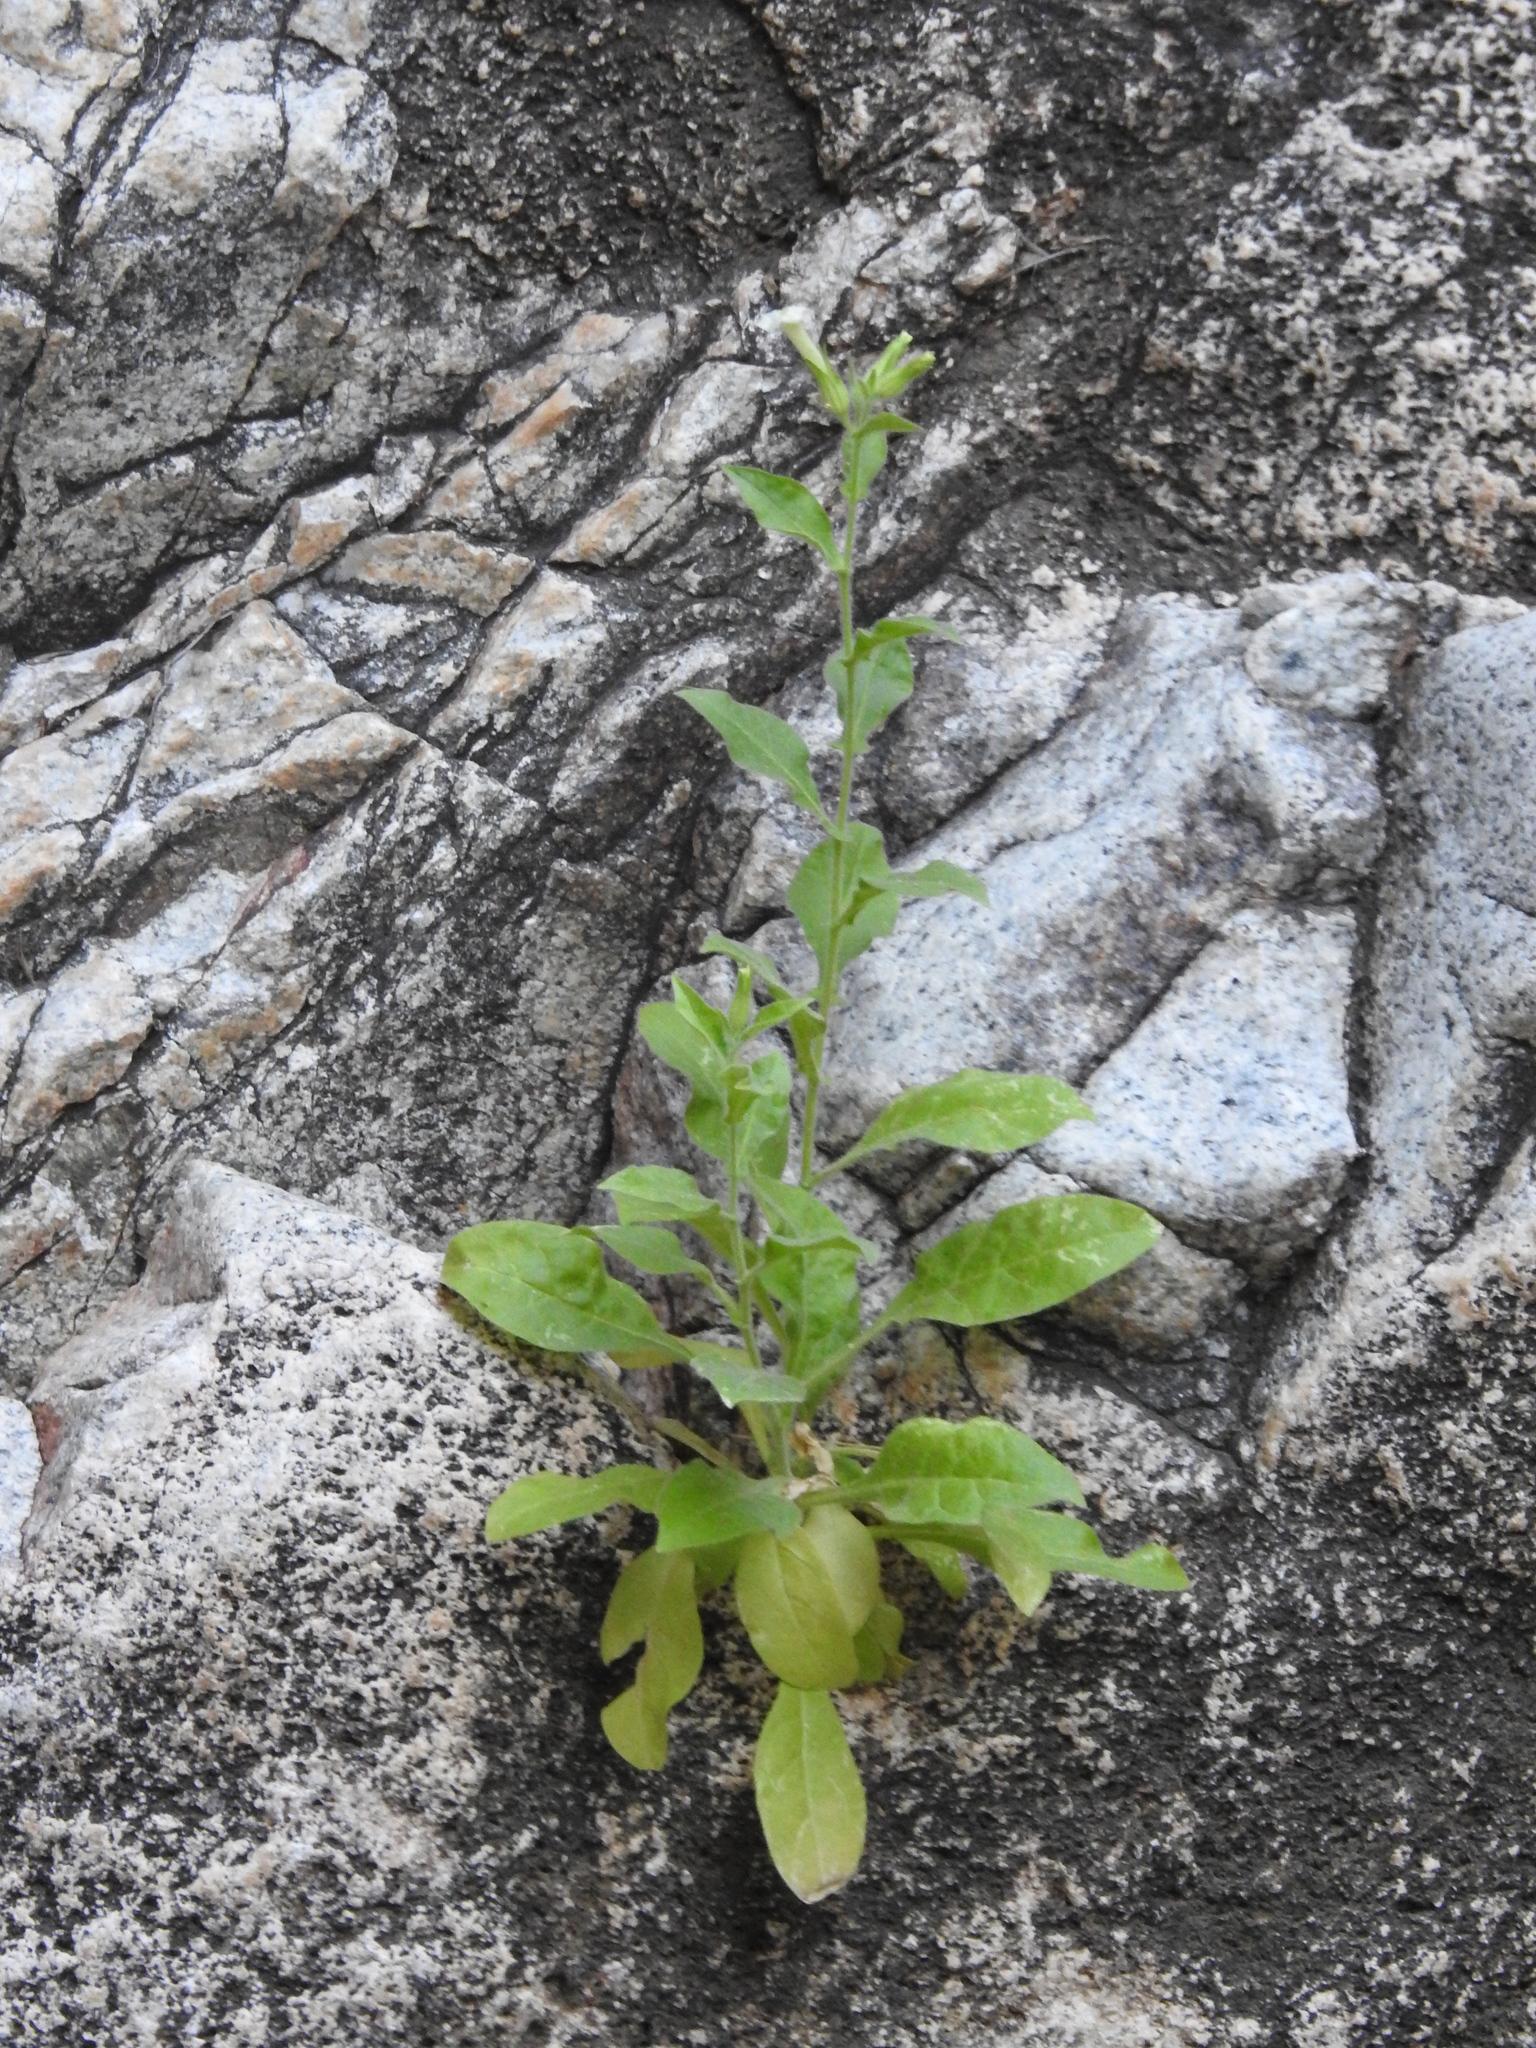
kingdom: Plantae
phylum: Tracheophyta
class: Magnoliopsida
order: Solanales
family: Solanaceae
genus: Nicotiana
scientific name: Nicotiana obtusifolia
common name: Desert tobacco
